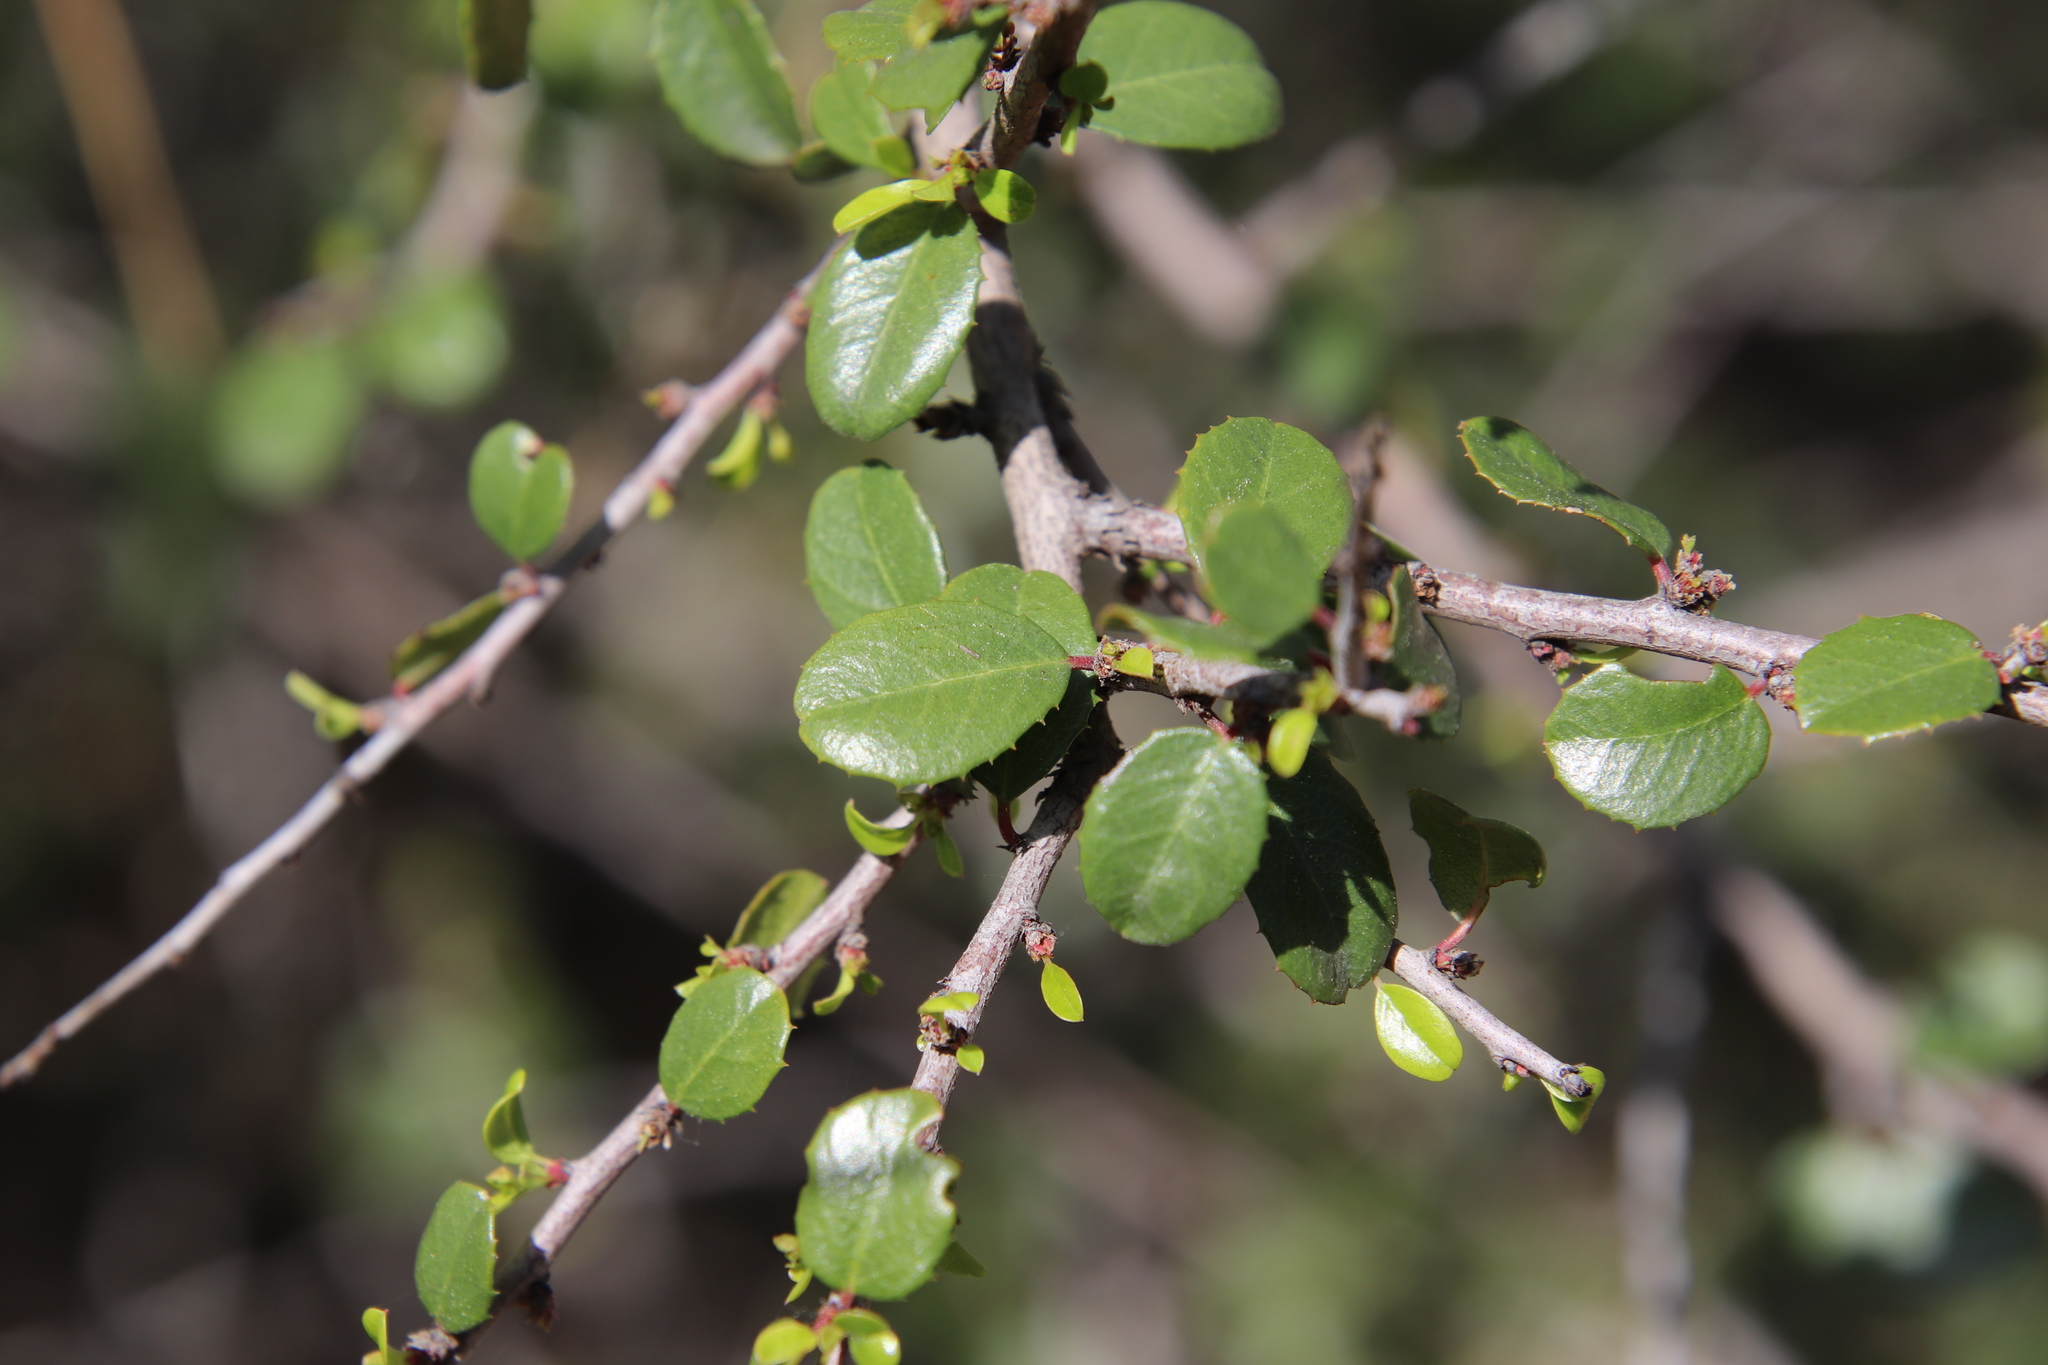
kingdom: Plantae
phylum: Tracheophyta
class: Magnoliopsida
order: Rosales
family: Rhamnaceae
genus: Endotropis
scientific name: Endotropis crocea
